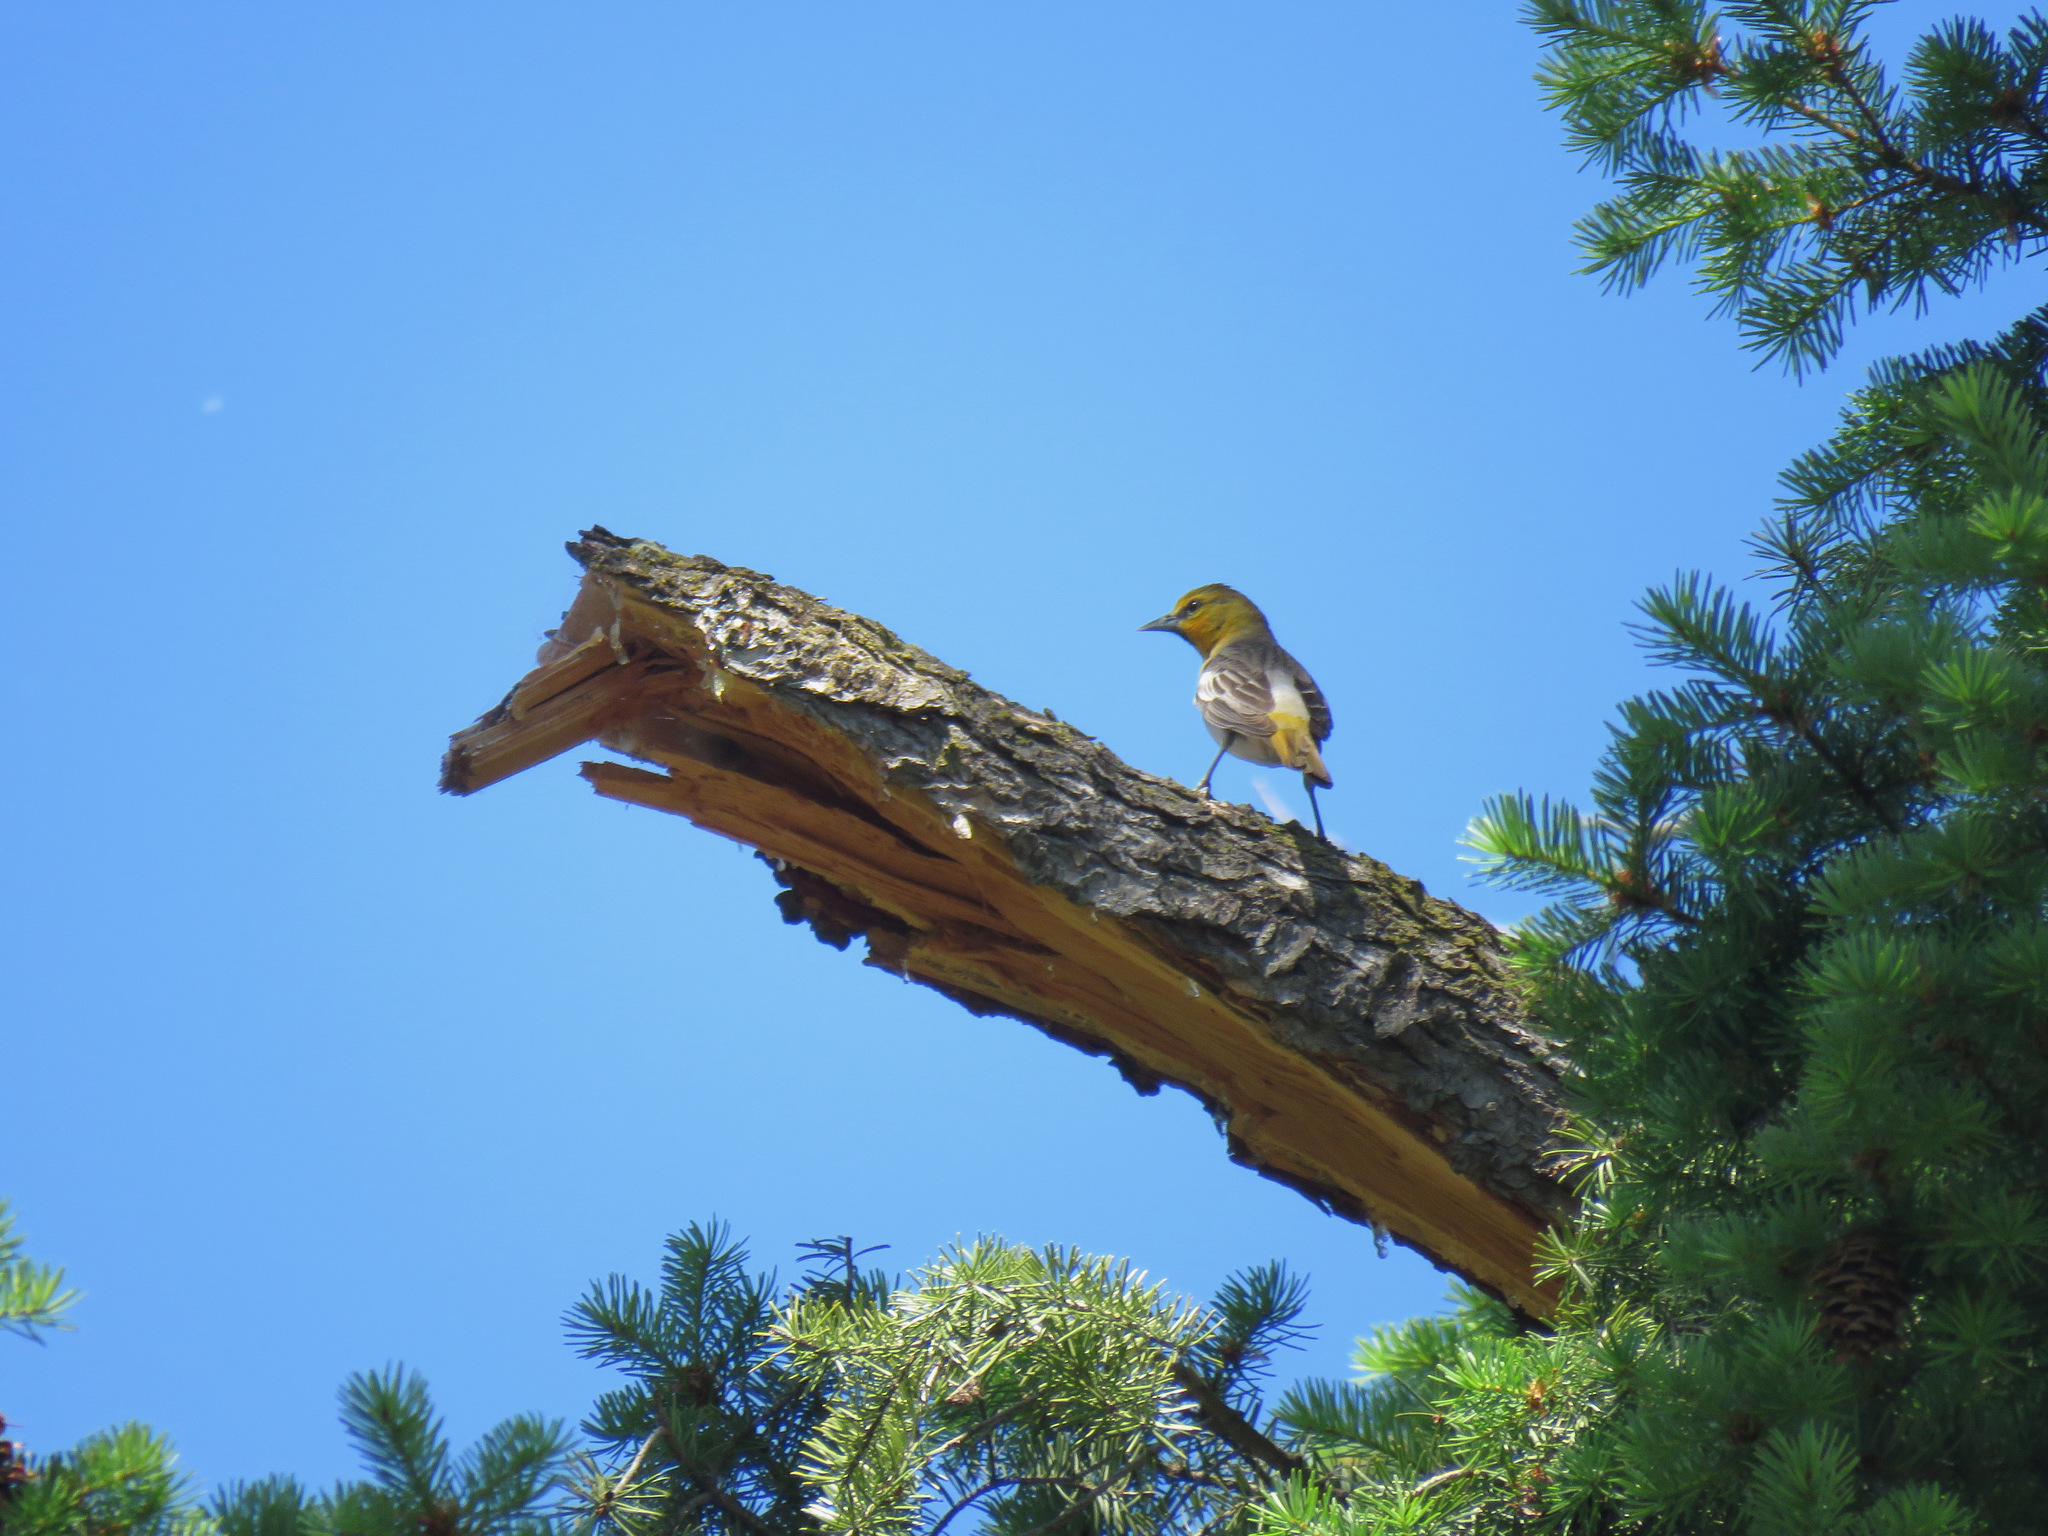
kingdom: Animalia
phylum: Chordata
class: Aves
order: Passeriformes
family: Icteridae
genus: Icterus
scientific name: Icterus bullockii
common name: Bullock's oriole
